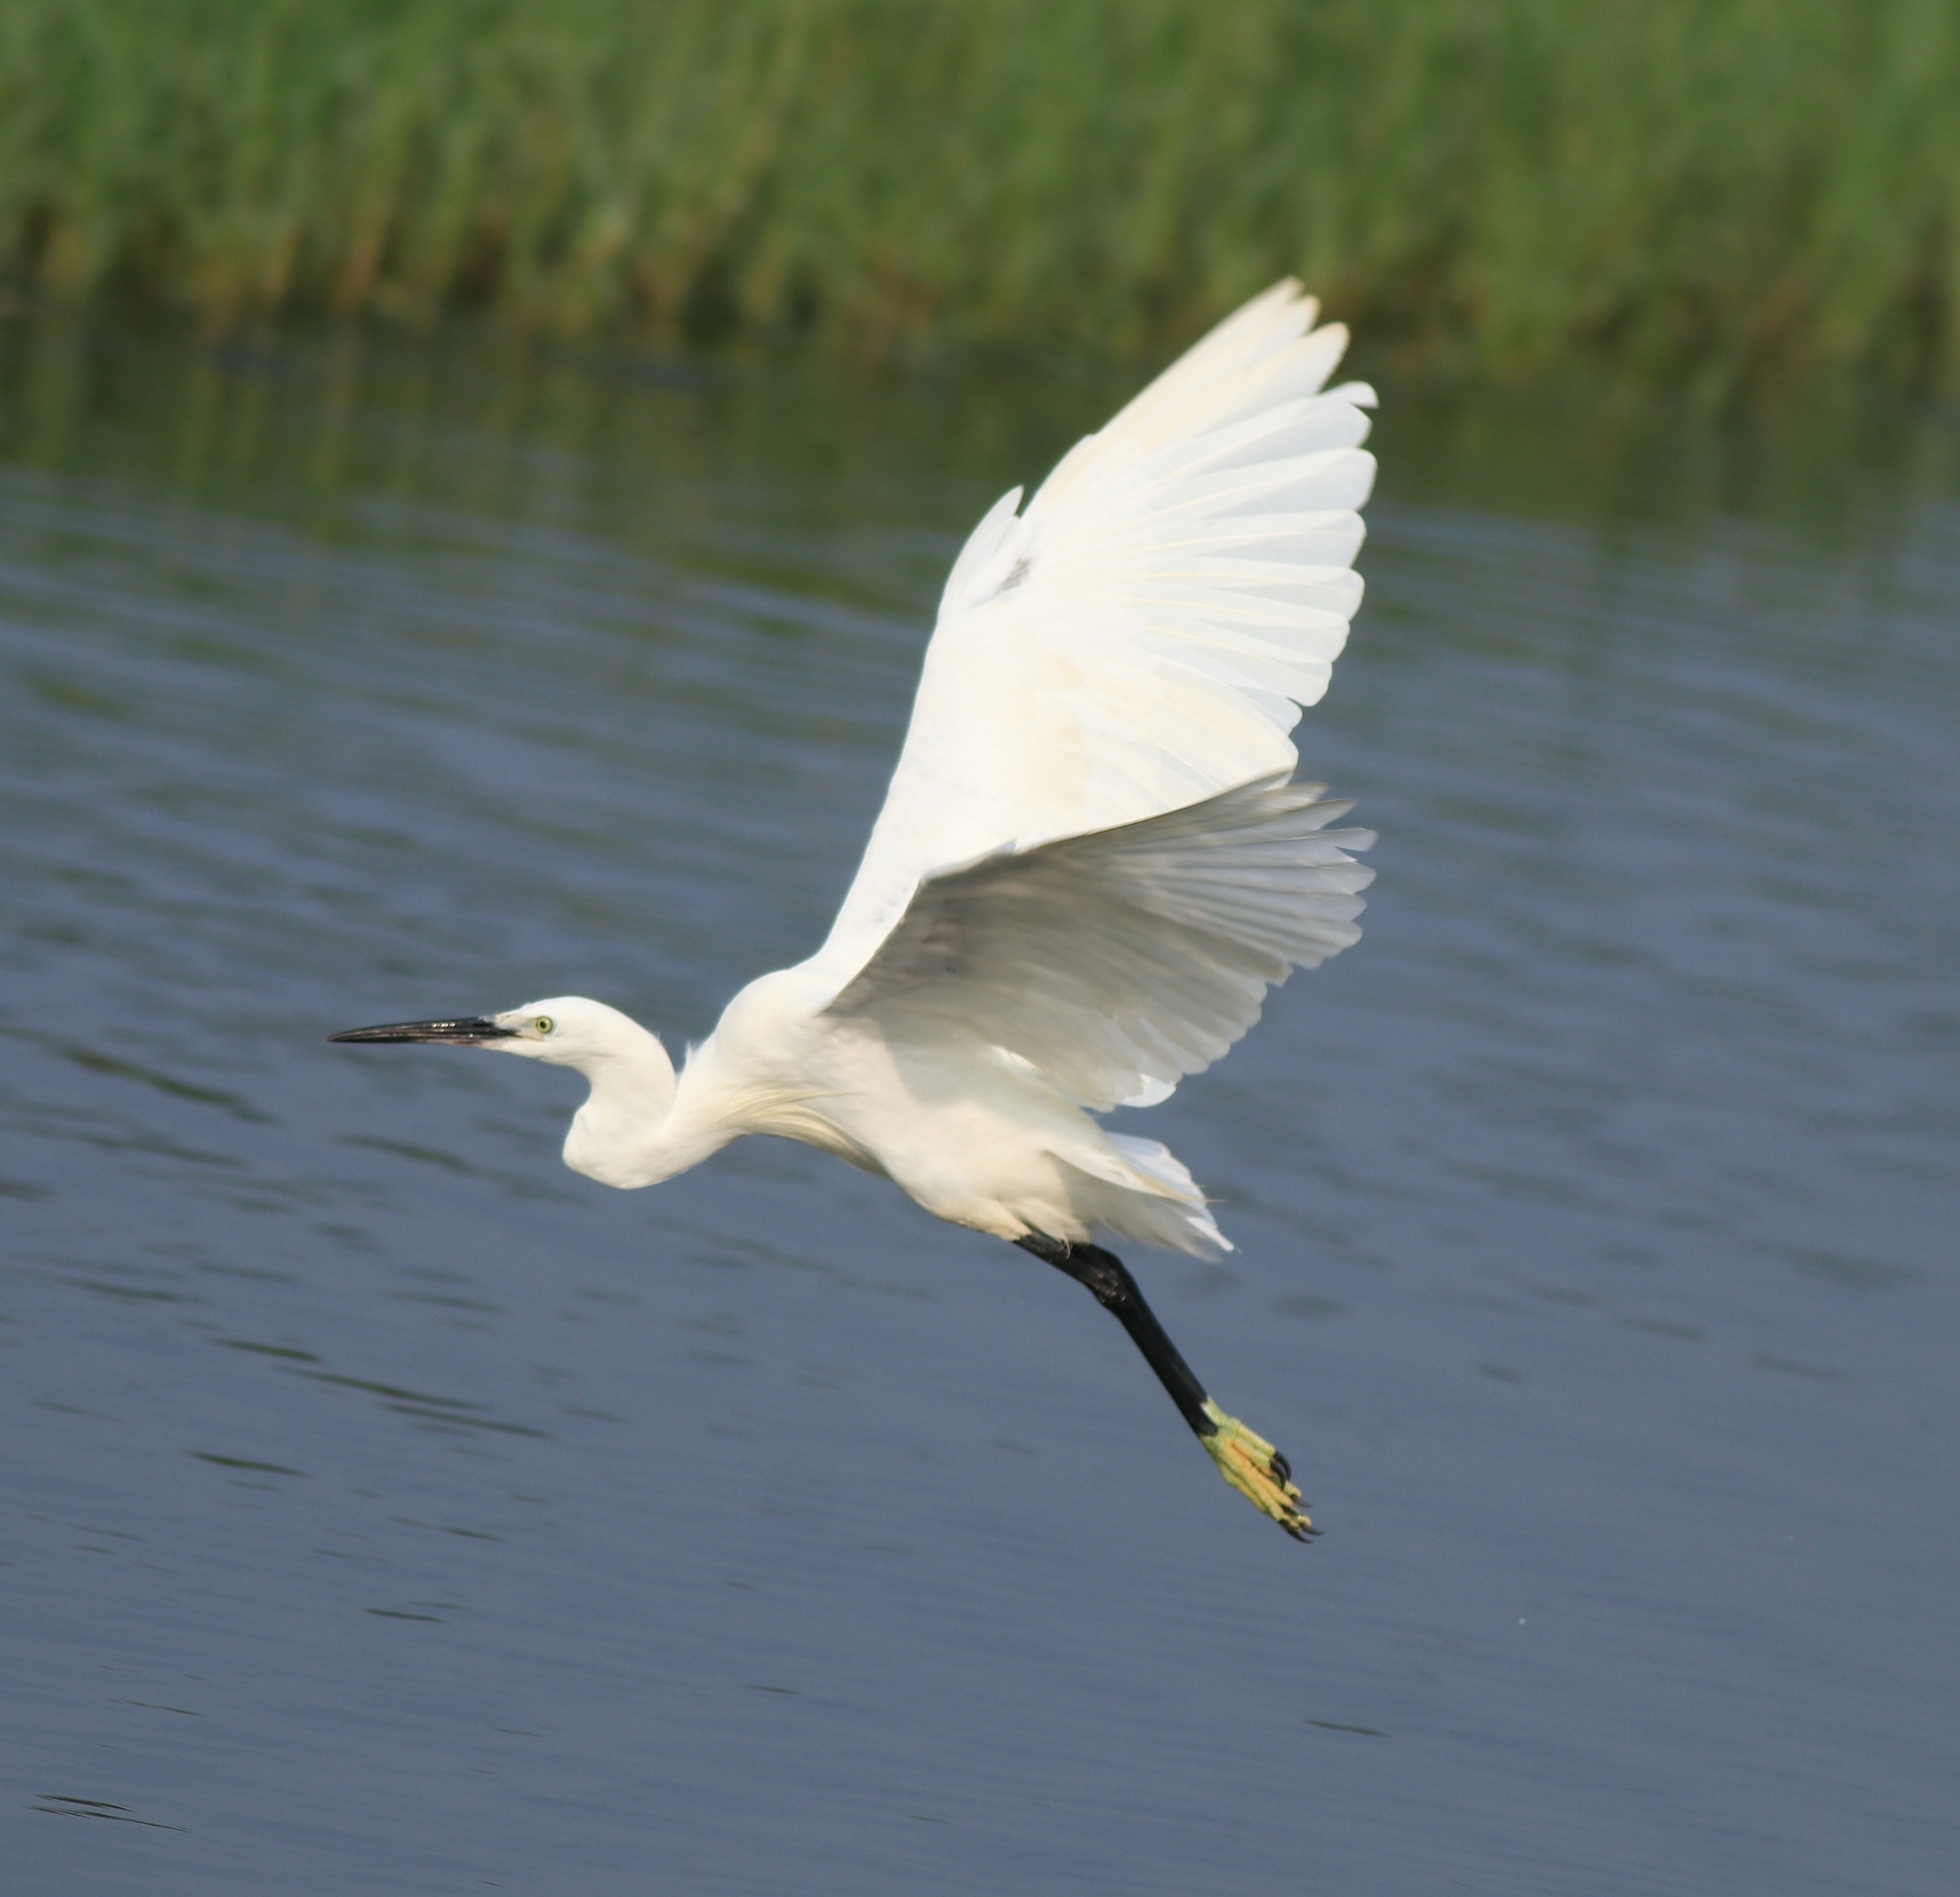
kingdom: Animalia
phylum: Chordata
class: Aves
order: Pelecaniformes
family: Ardeidae
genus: Egretta
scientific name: Egretta garzetta
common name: Little egret
